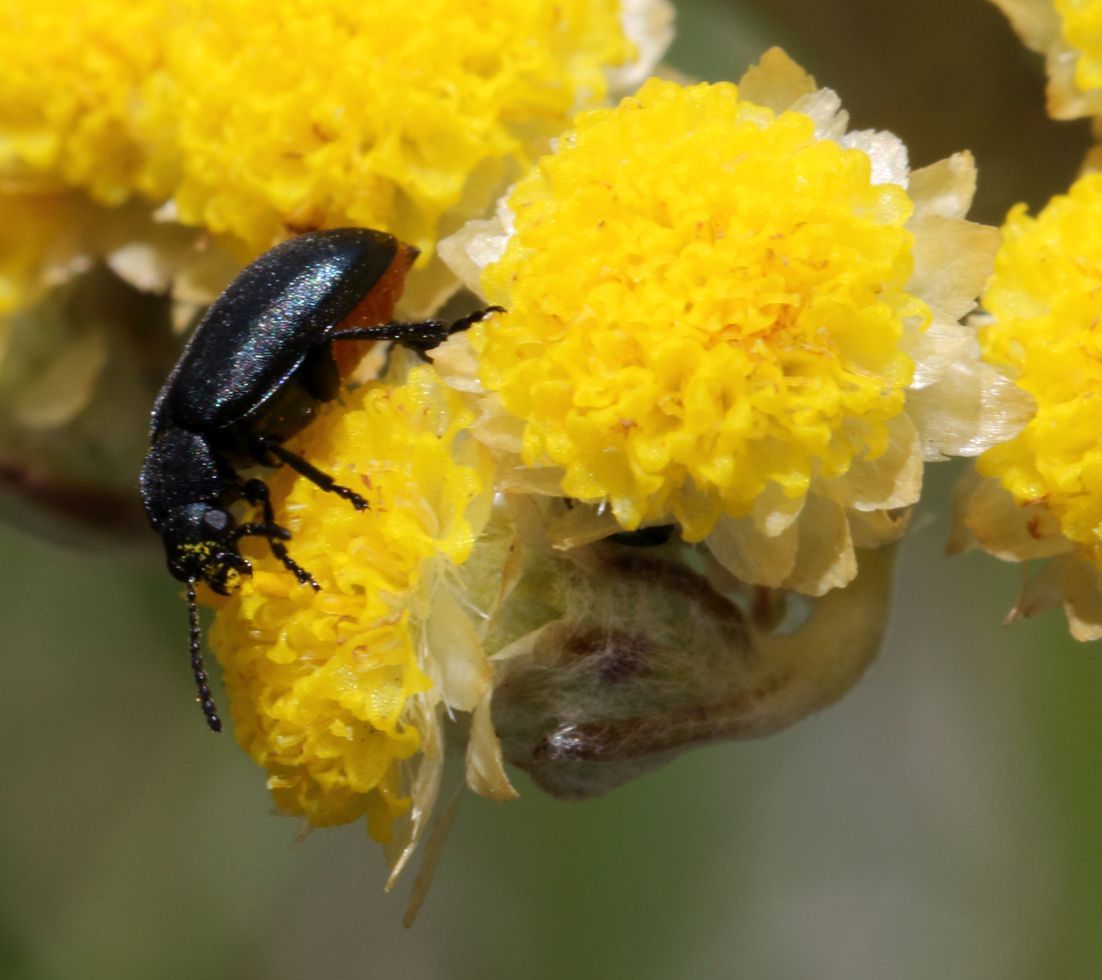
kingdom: Animalia
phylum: Arthropoda
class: Insecta
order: Coleoptera
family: Chrysomelidae
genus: Gastrida
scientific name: Gastrida
